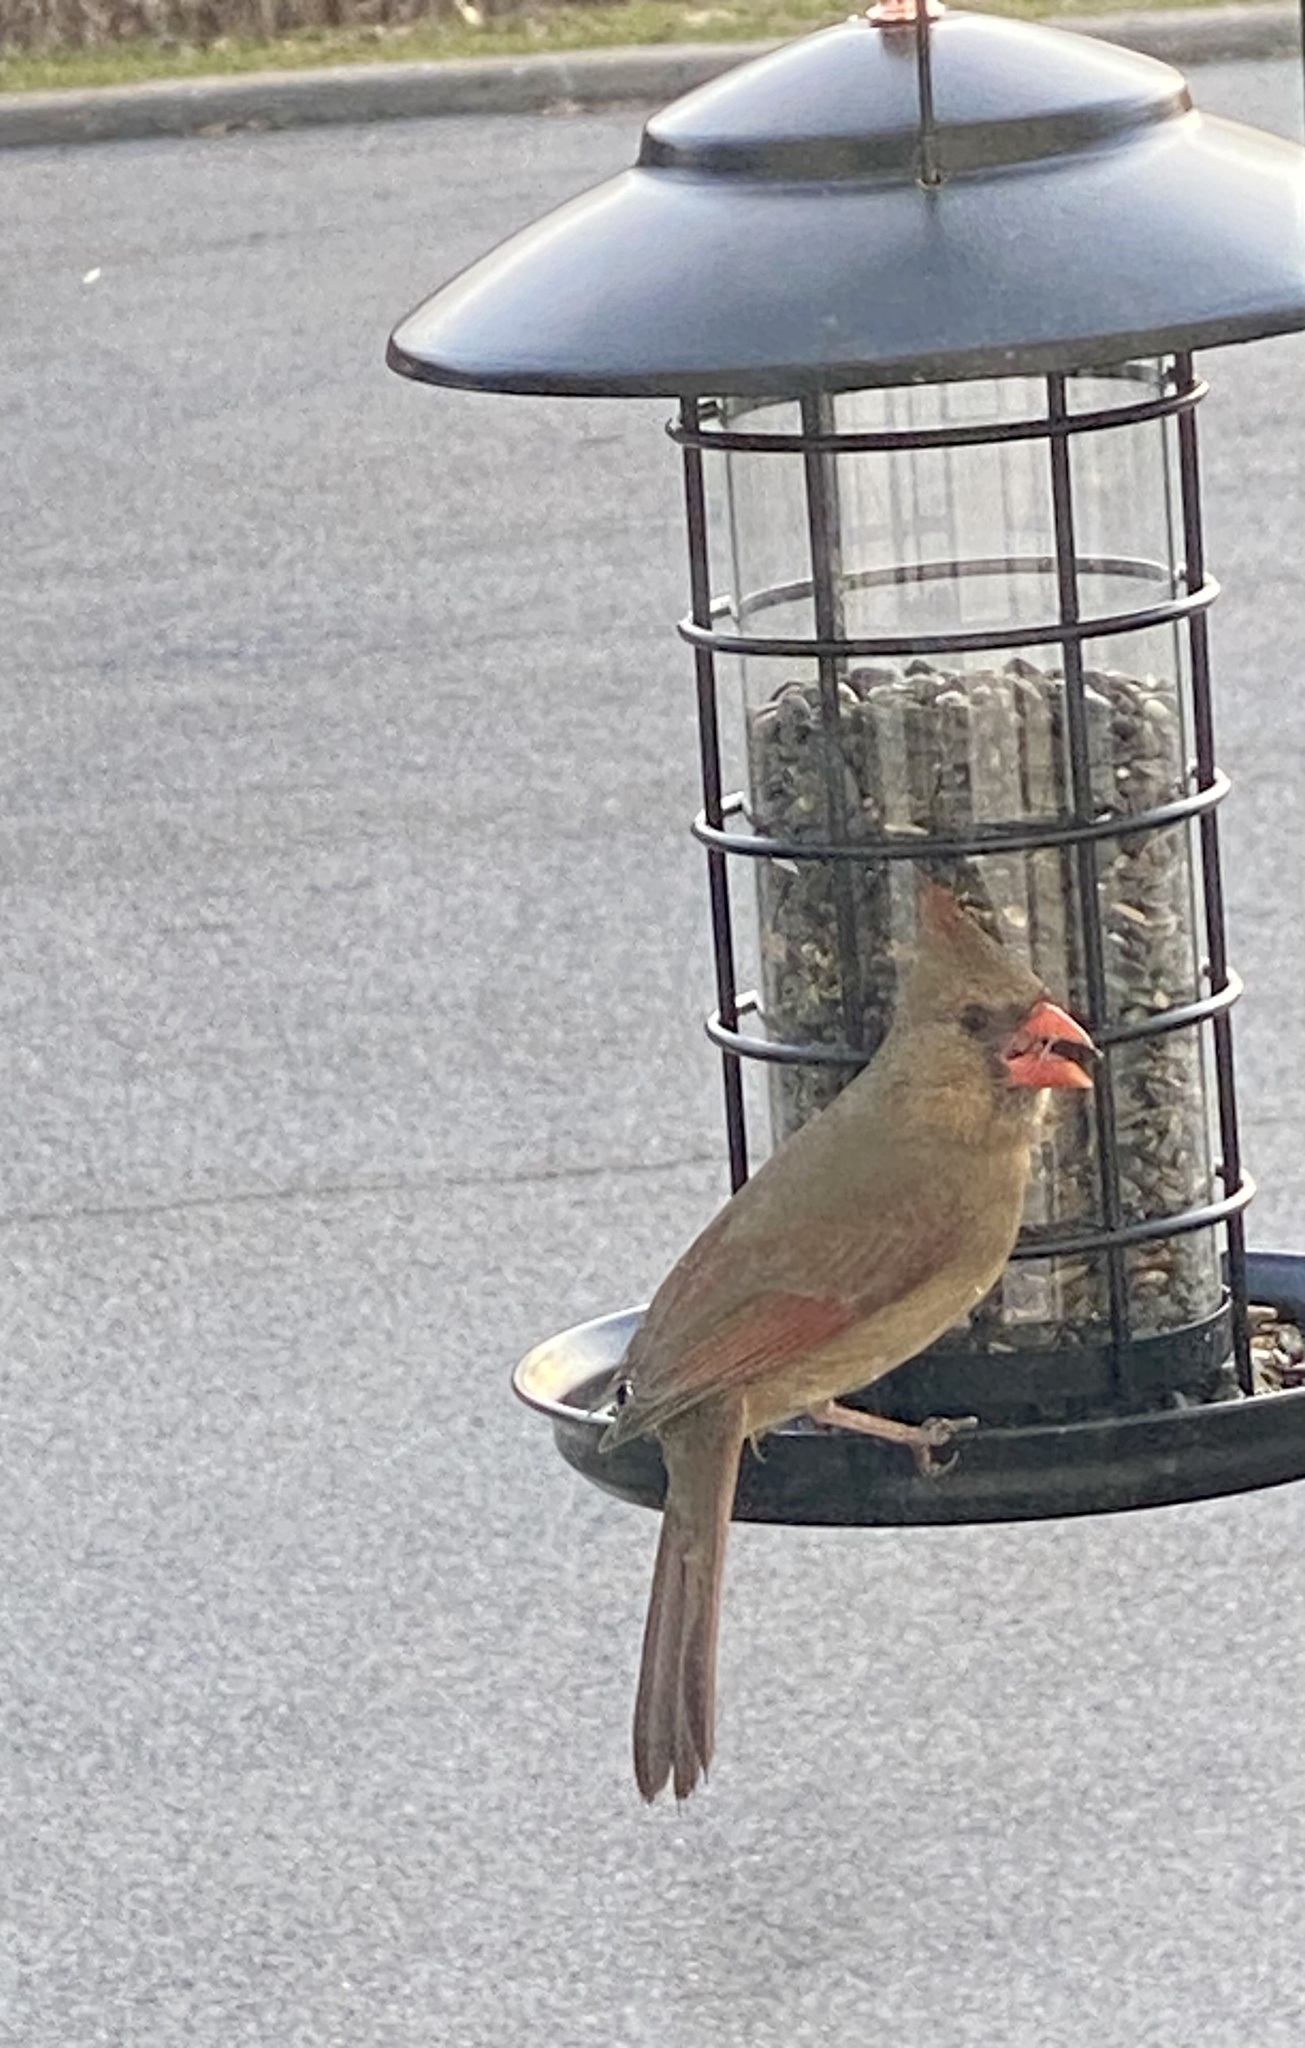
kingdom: Animalia
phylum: Chordata
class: Aves
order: Passeriformes
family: Cardinalidae
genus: Cardinalis
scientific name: Cardinalis cardinalis
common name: Northern cardinal
